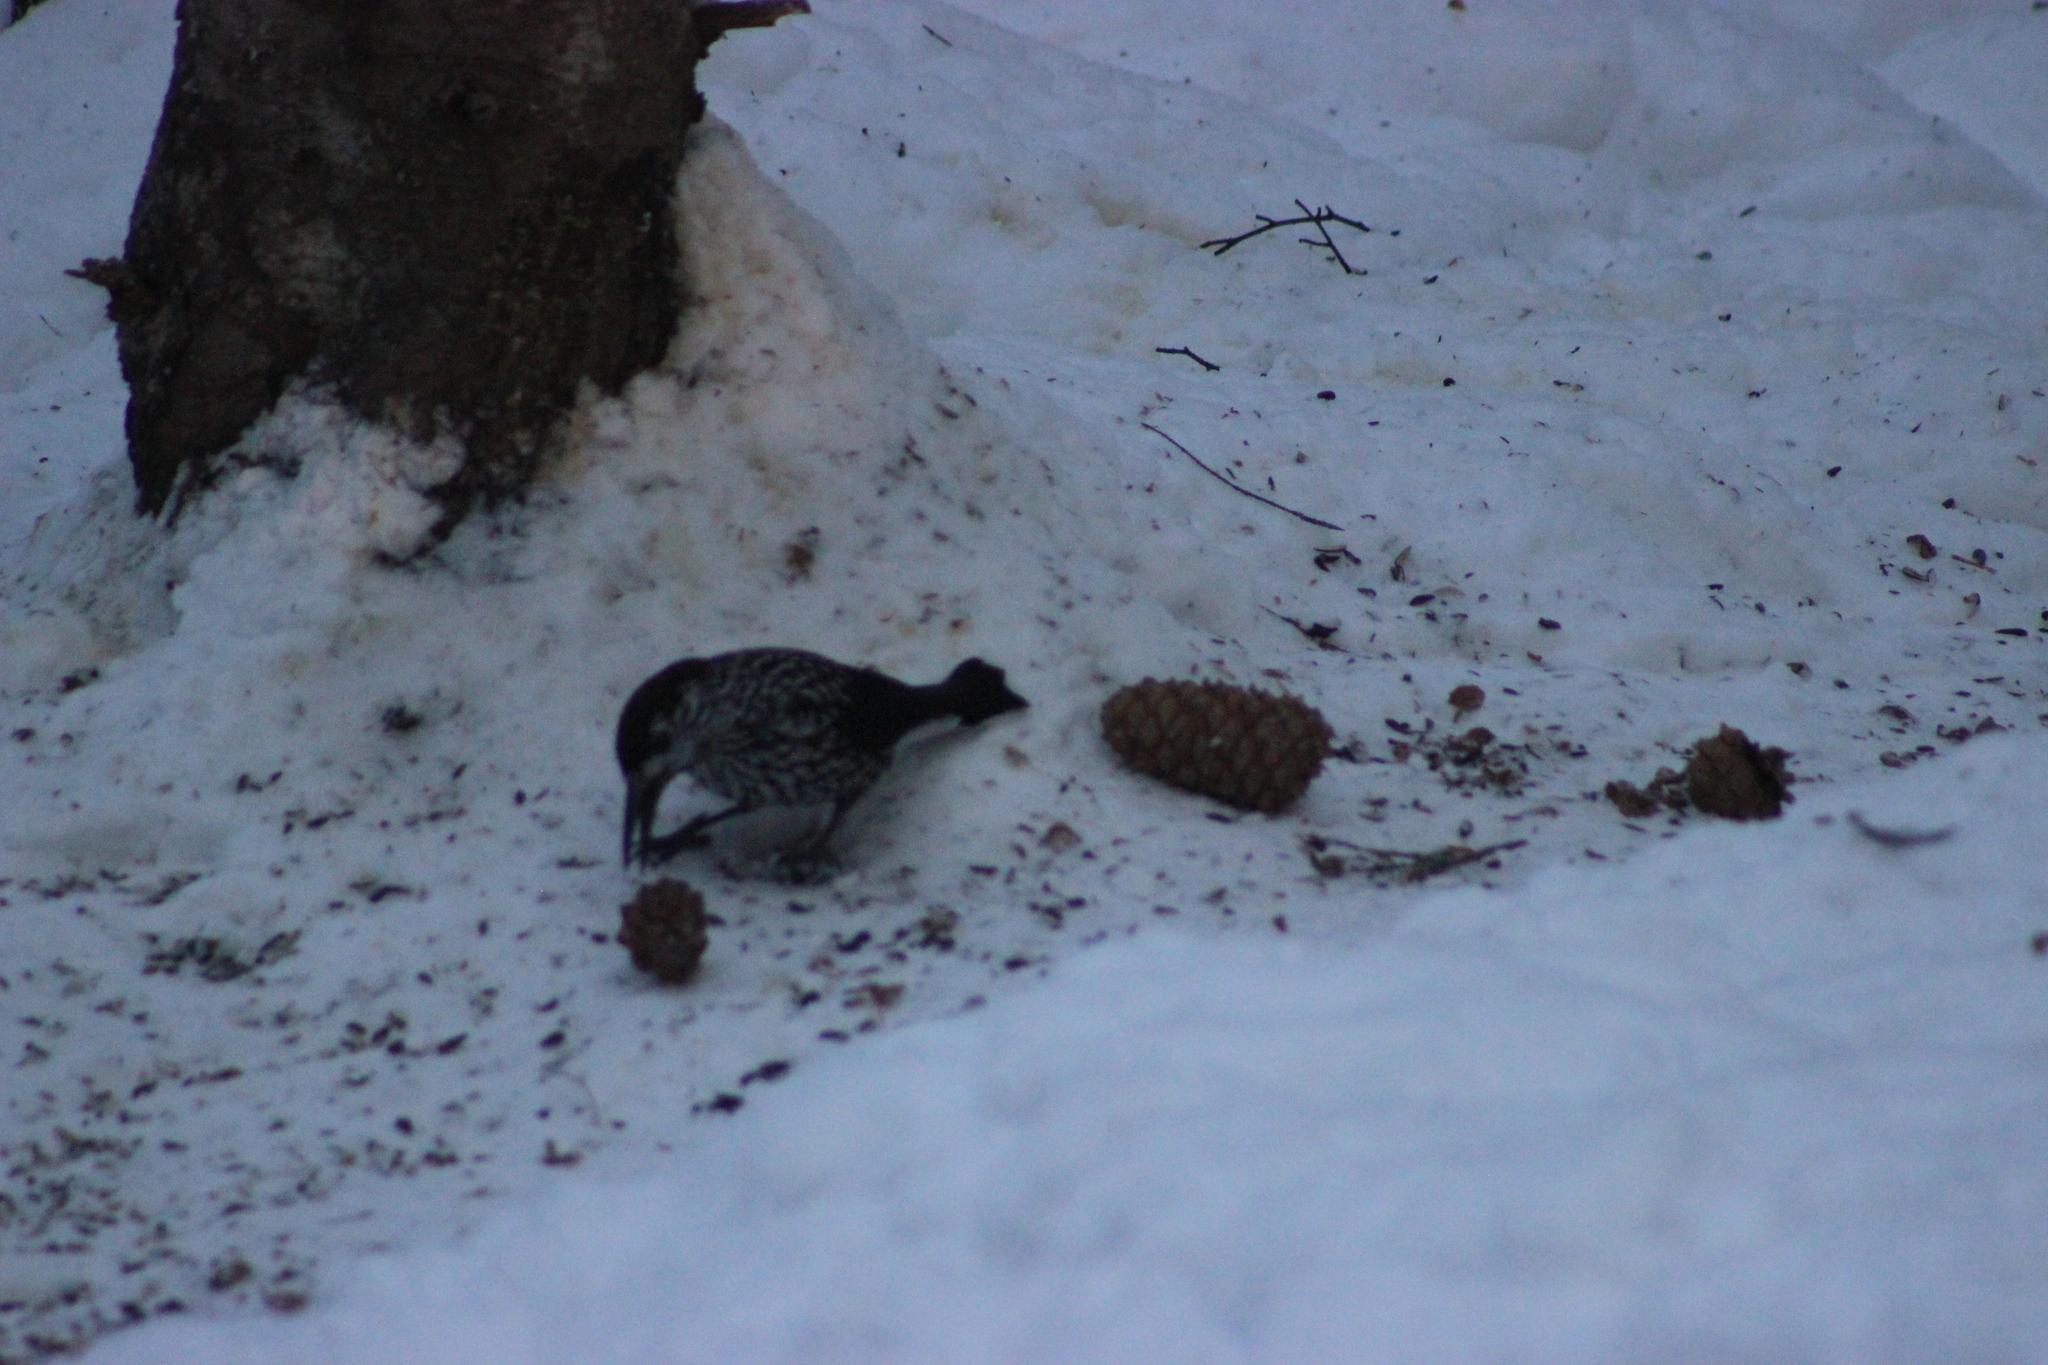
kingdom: Animalia
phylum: Chordata
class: Aves
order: Passeriformes
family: Corvidae
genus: Nucifraga
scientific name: Nucifraga caryocatactes
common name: Spotted nutcracker
